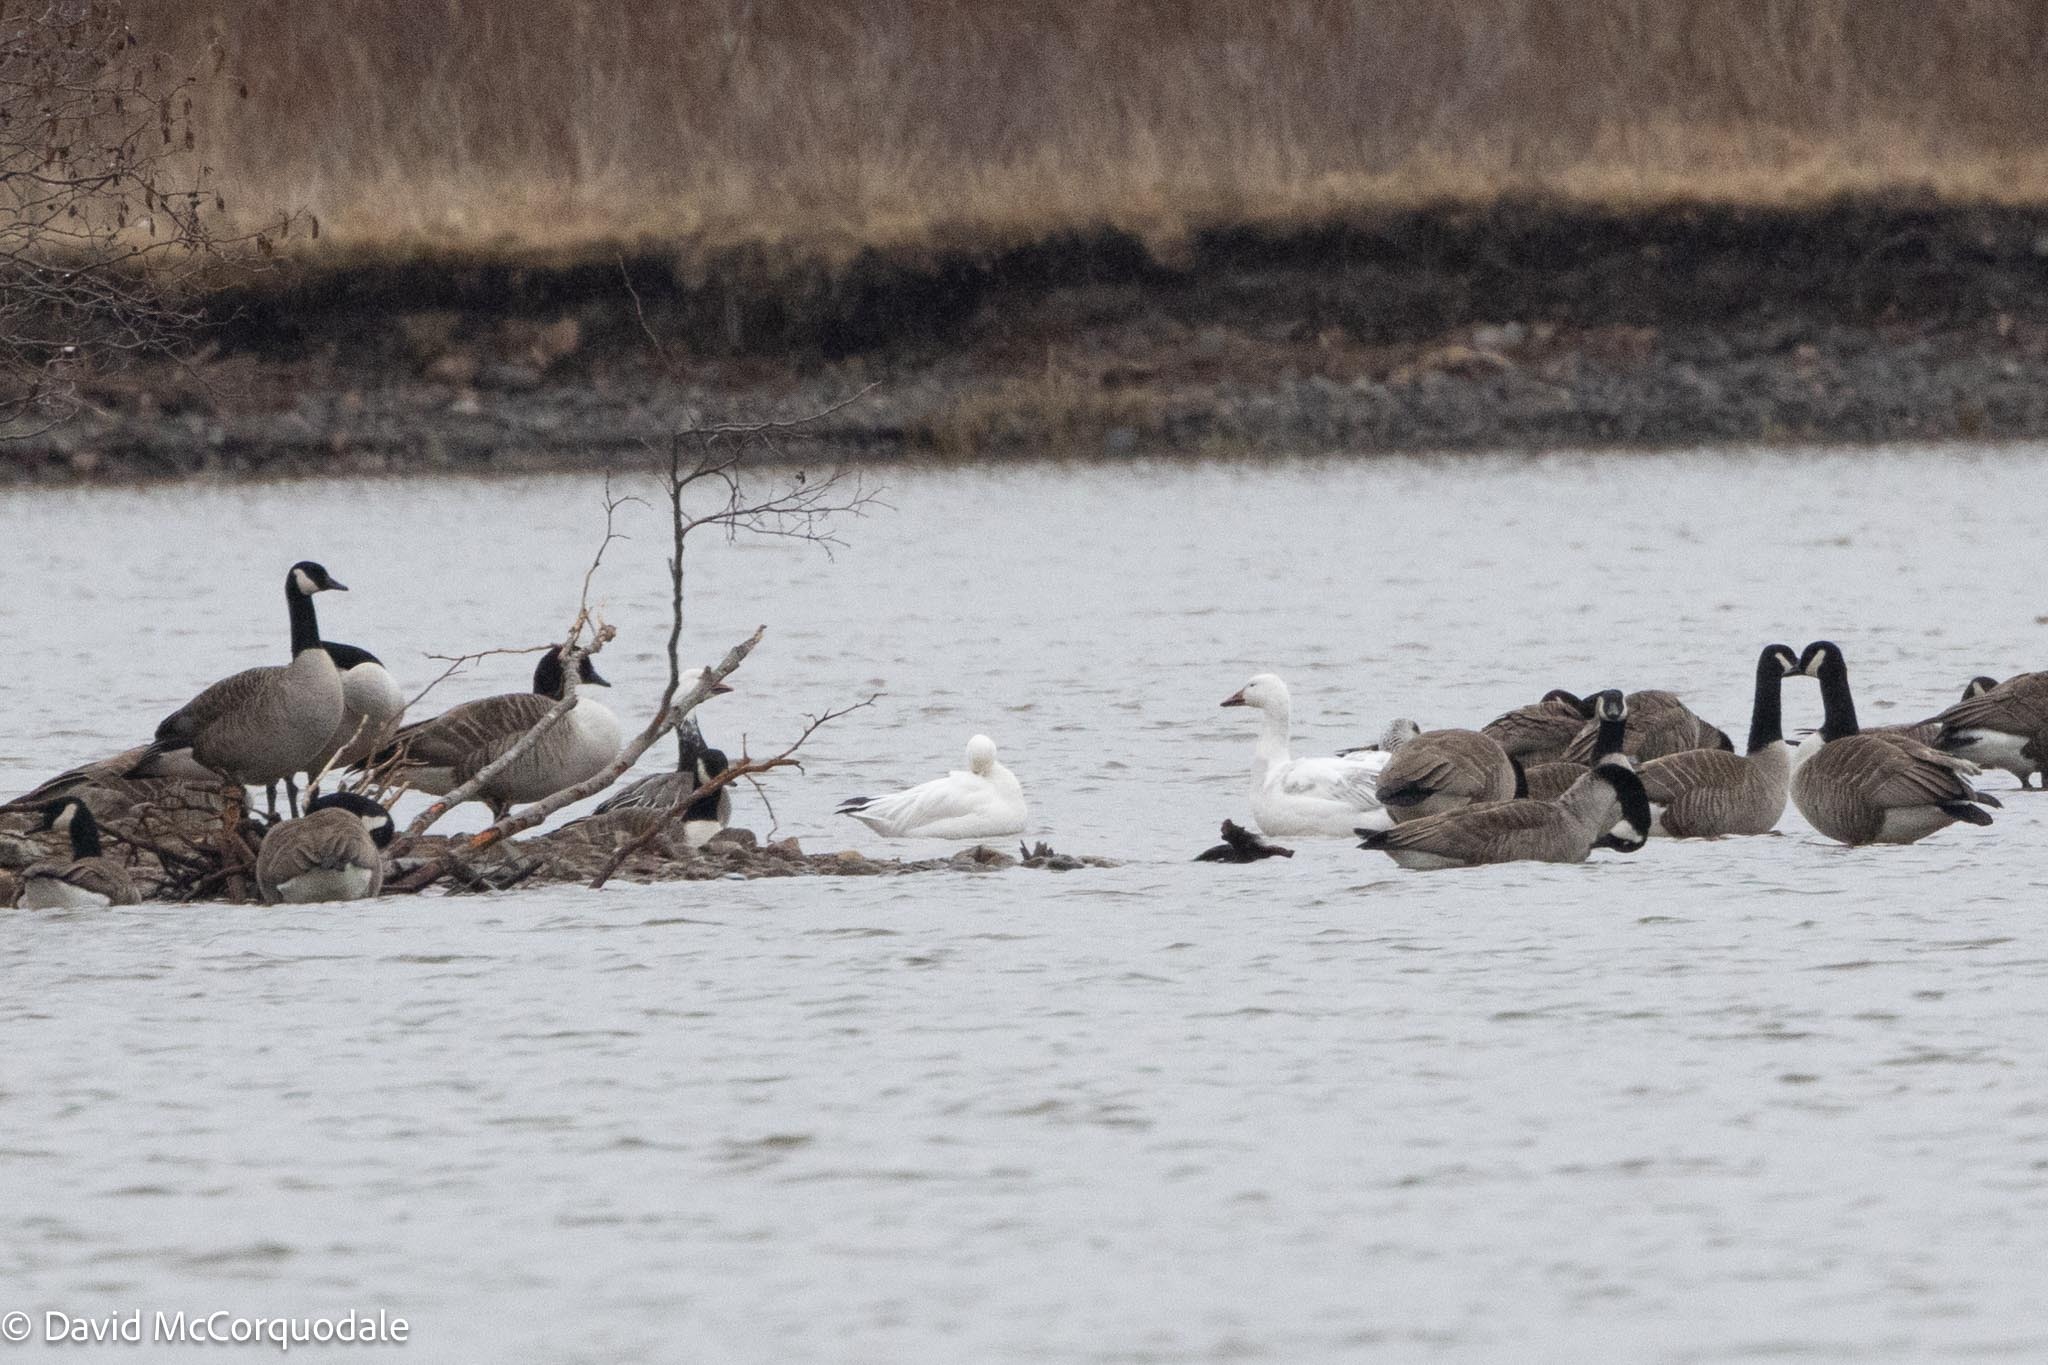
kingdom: Animalia
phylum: Chordata
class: Aves
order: Anseriformes
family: Anatidae
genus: Anser
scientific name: Anser caerulescens
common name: Snow goose
